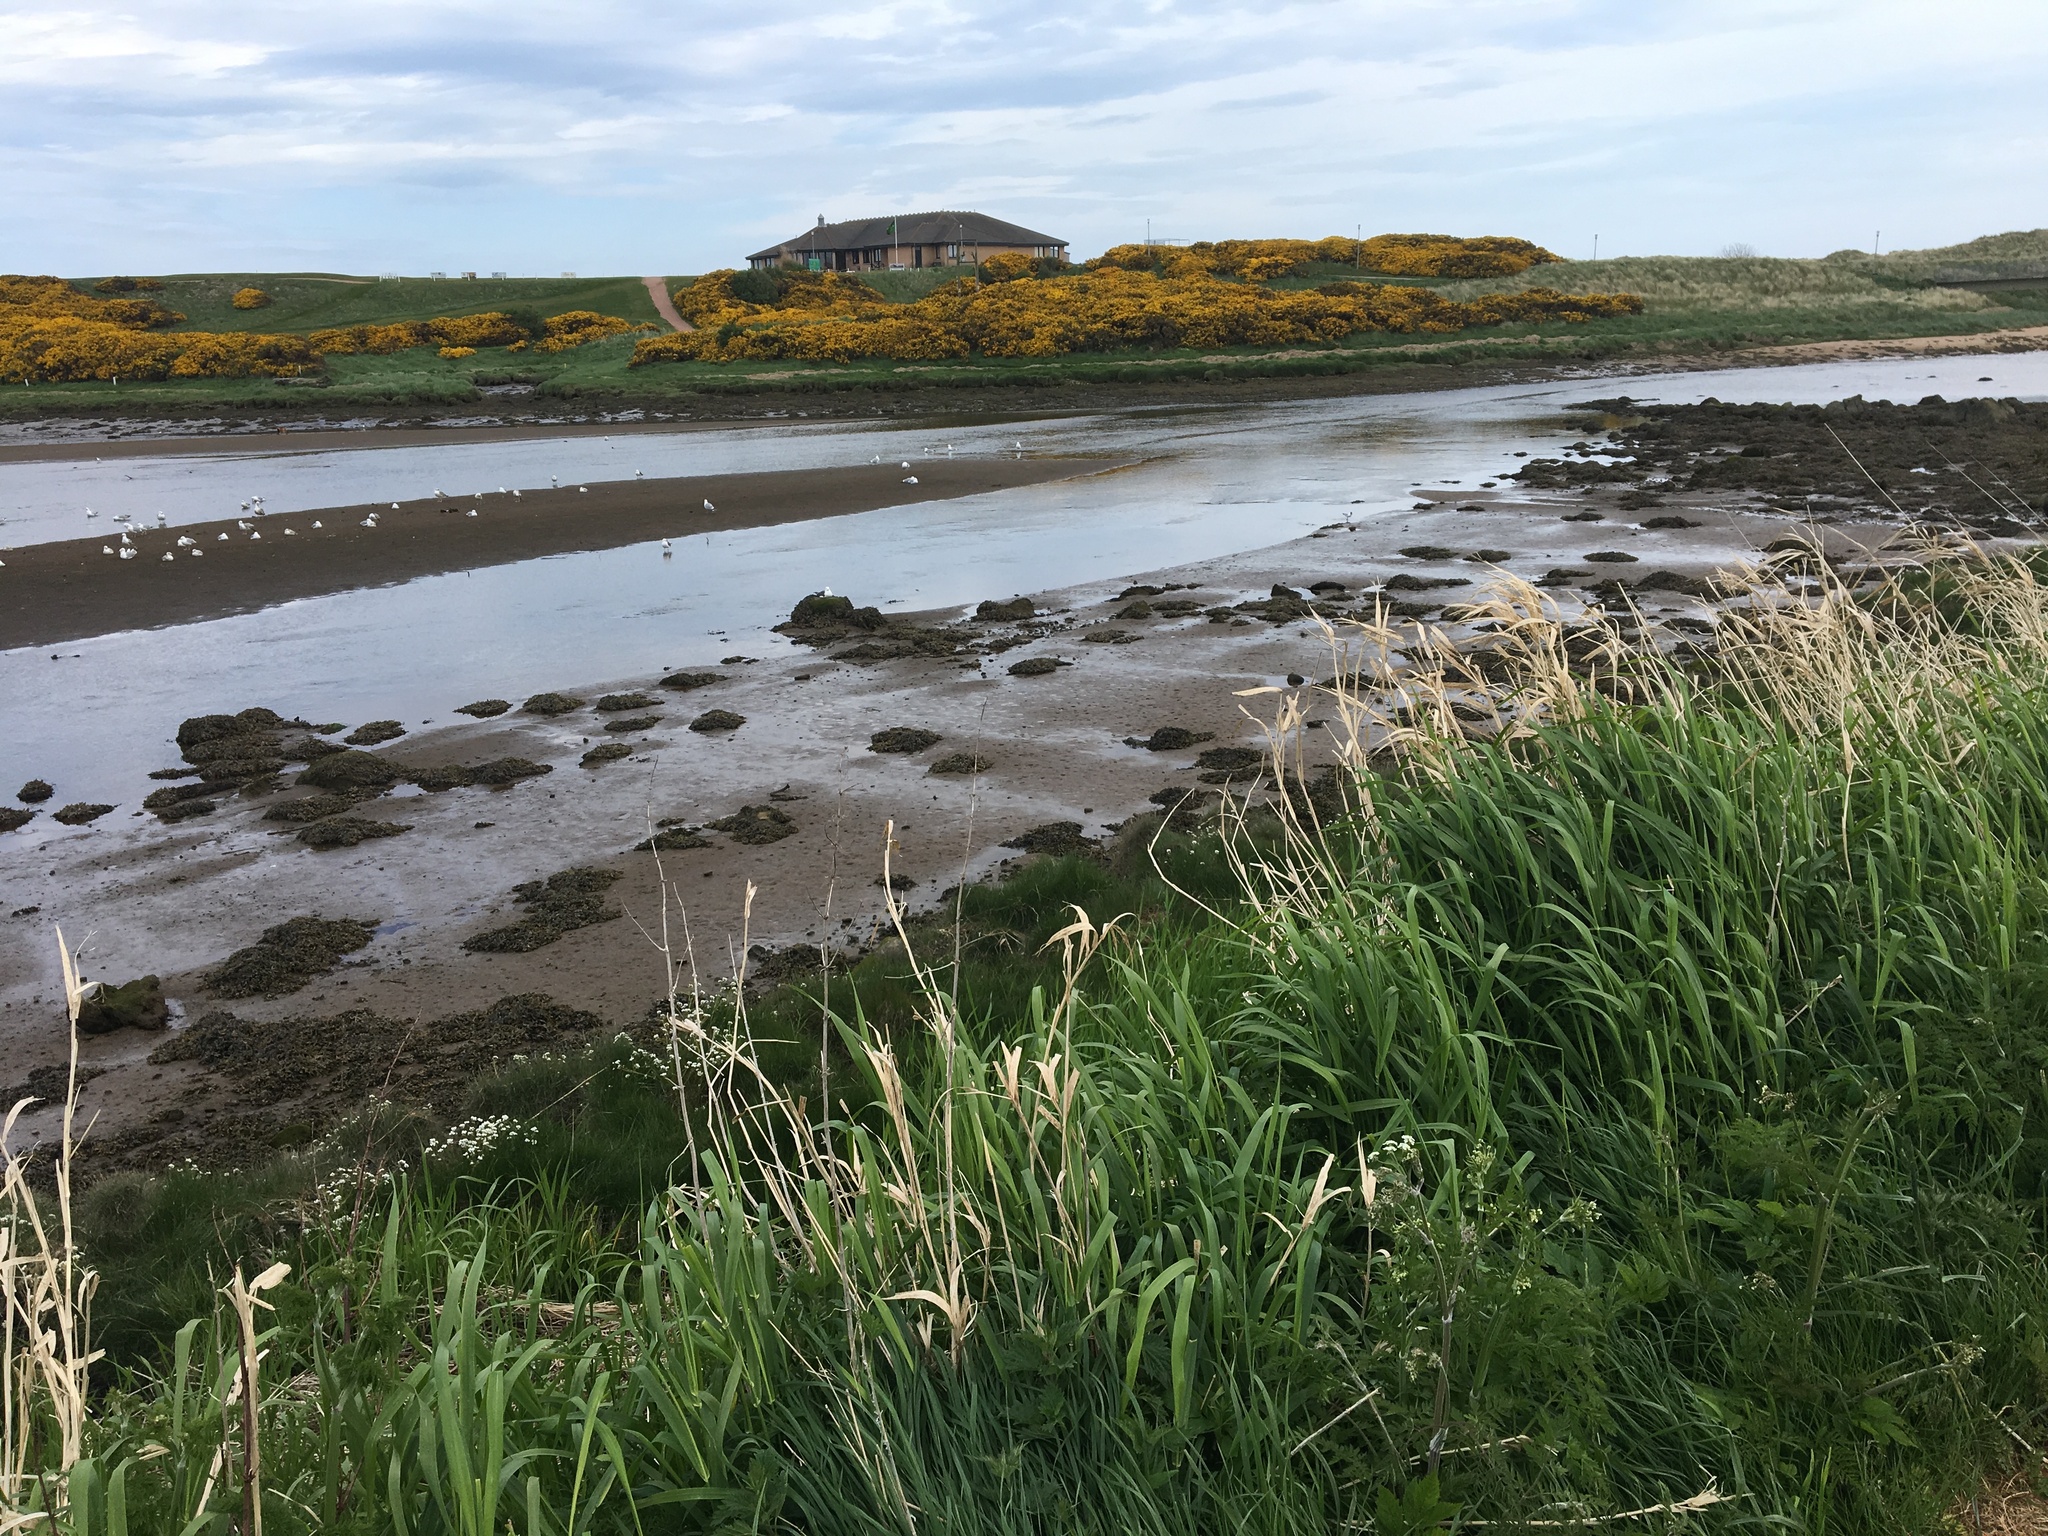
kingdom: Plantae
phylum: Tracheophyta
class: Magnoliopsida
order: Fabales
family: Fabaceae
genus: Ulex
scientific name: Ulex europaeus
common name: Common gorse
